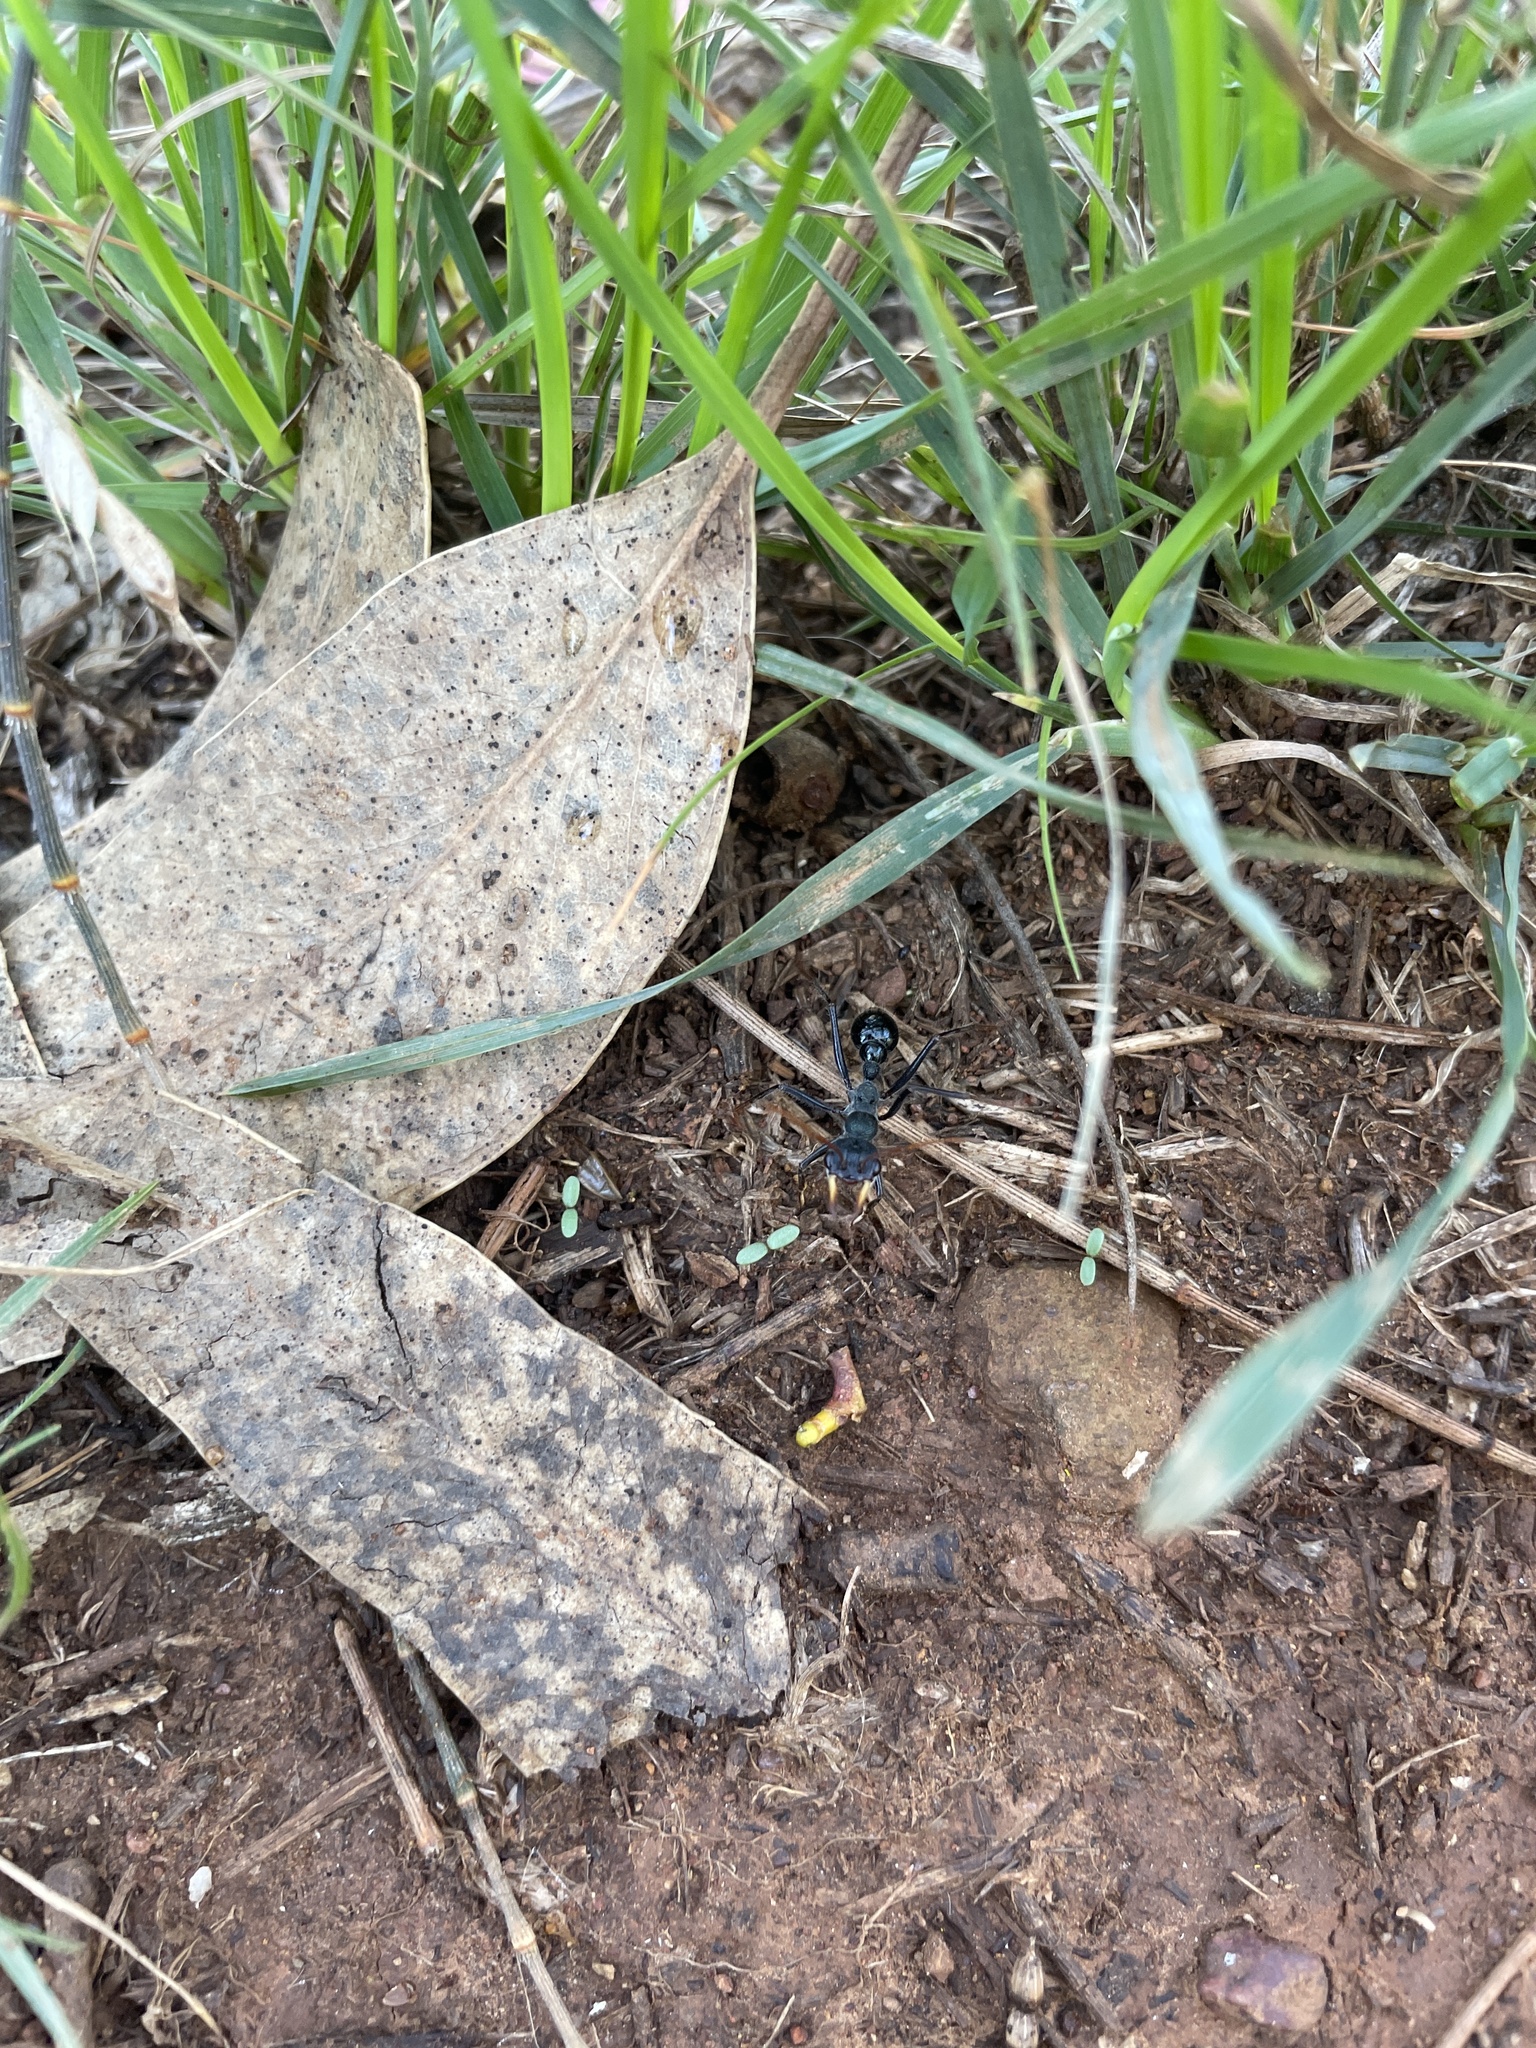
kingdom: Animalia
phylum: Arthropoda
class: Insecta
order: Hymenoptera
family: Formicidae
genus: Myrmecia
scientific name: Myrmecia tarsata
